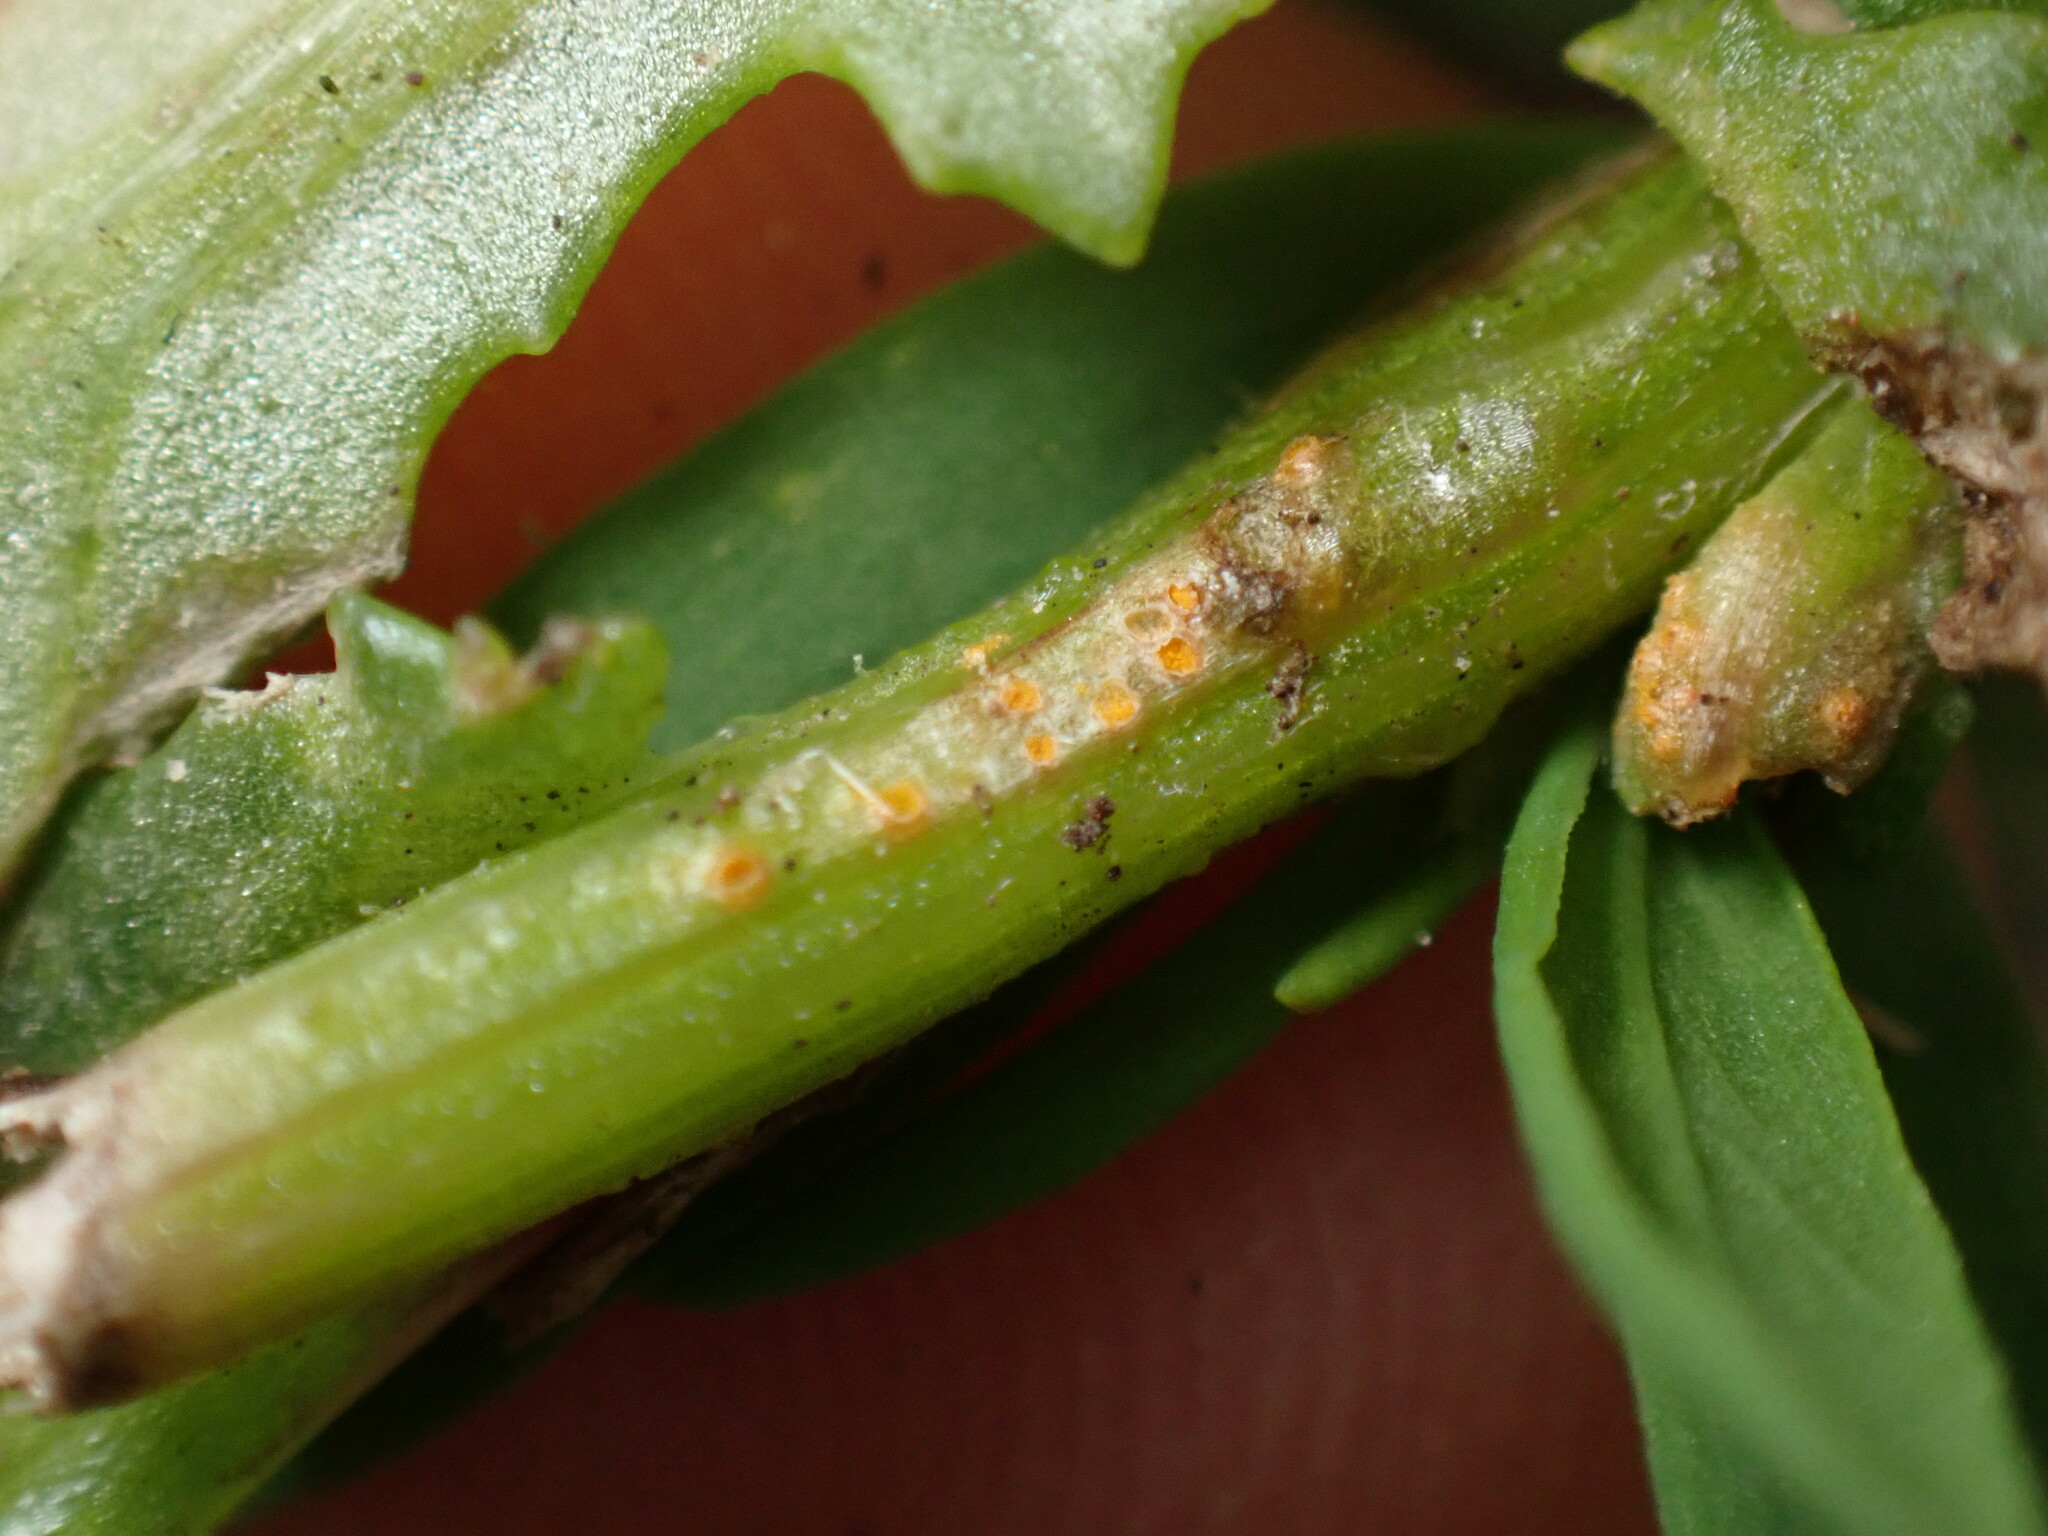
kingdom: Fungi
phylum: Basidiomycota
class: Pucciniomycetes
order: Pucciniales
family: Pucciniaceae
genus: Puccinia
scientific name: Puccinia lagenophorae
